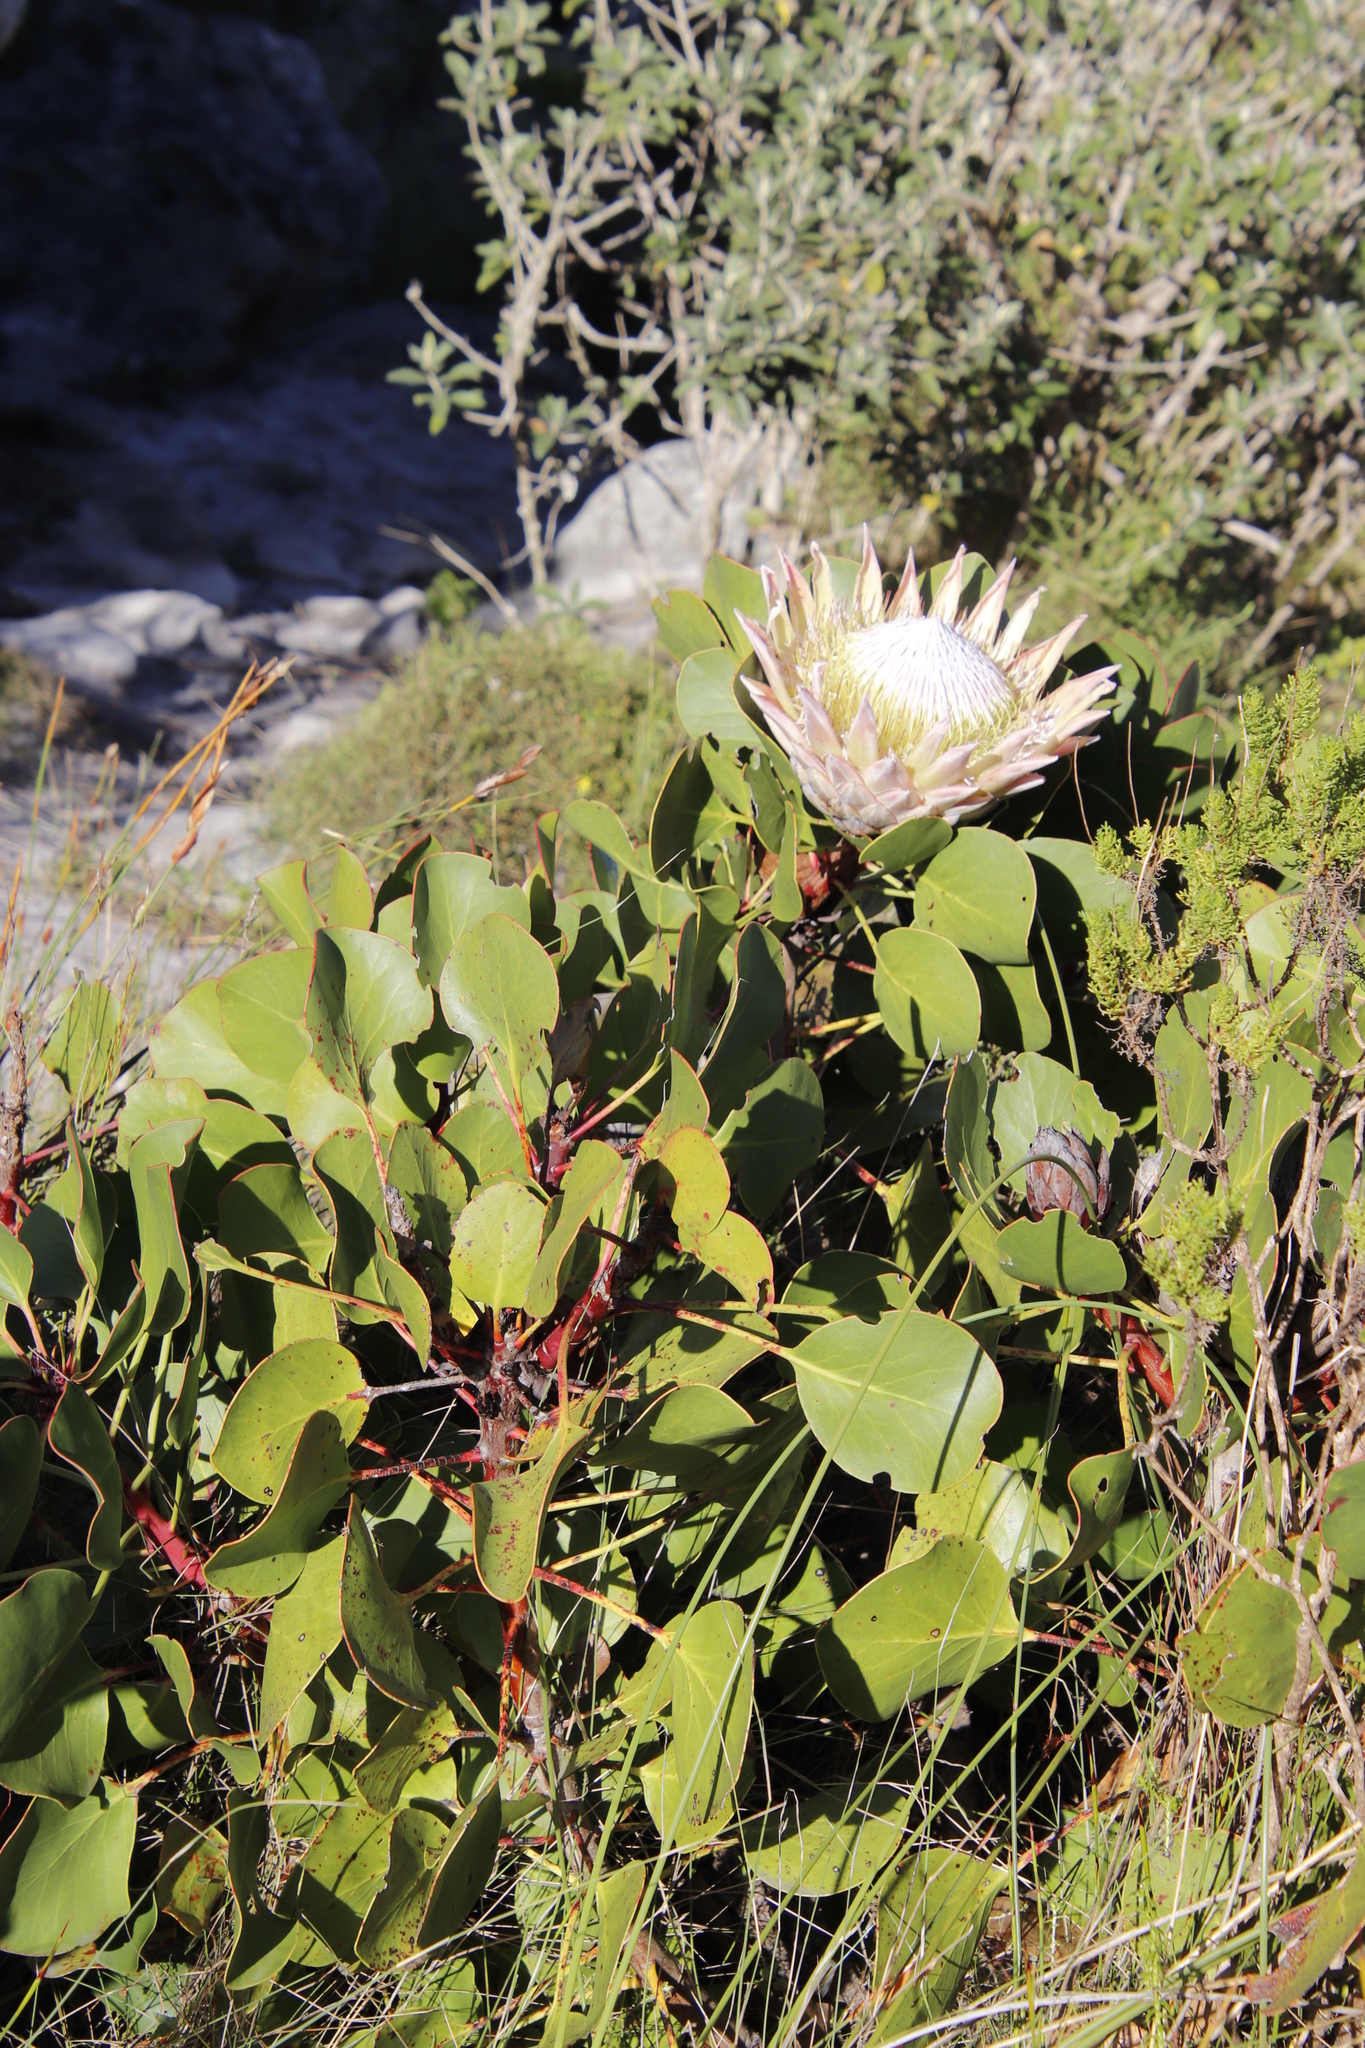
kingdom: Plantae
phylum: Tracheophyta
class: Magnoliopsida
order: Proteales
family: Proteaceae
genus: Protea
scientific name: Protea cynaroides
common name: King protea
